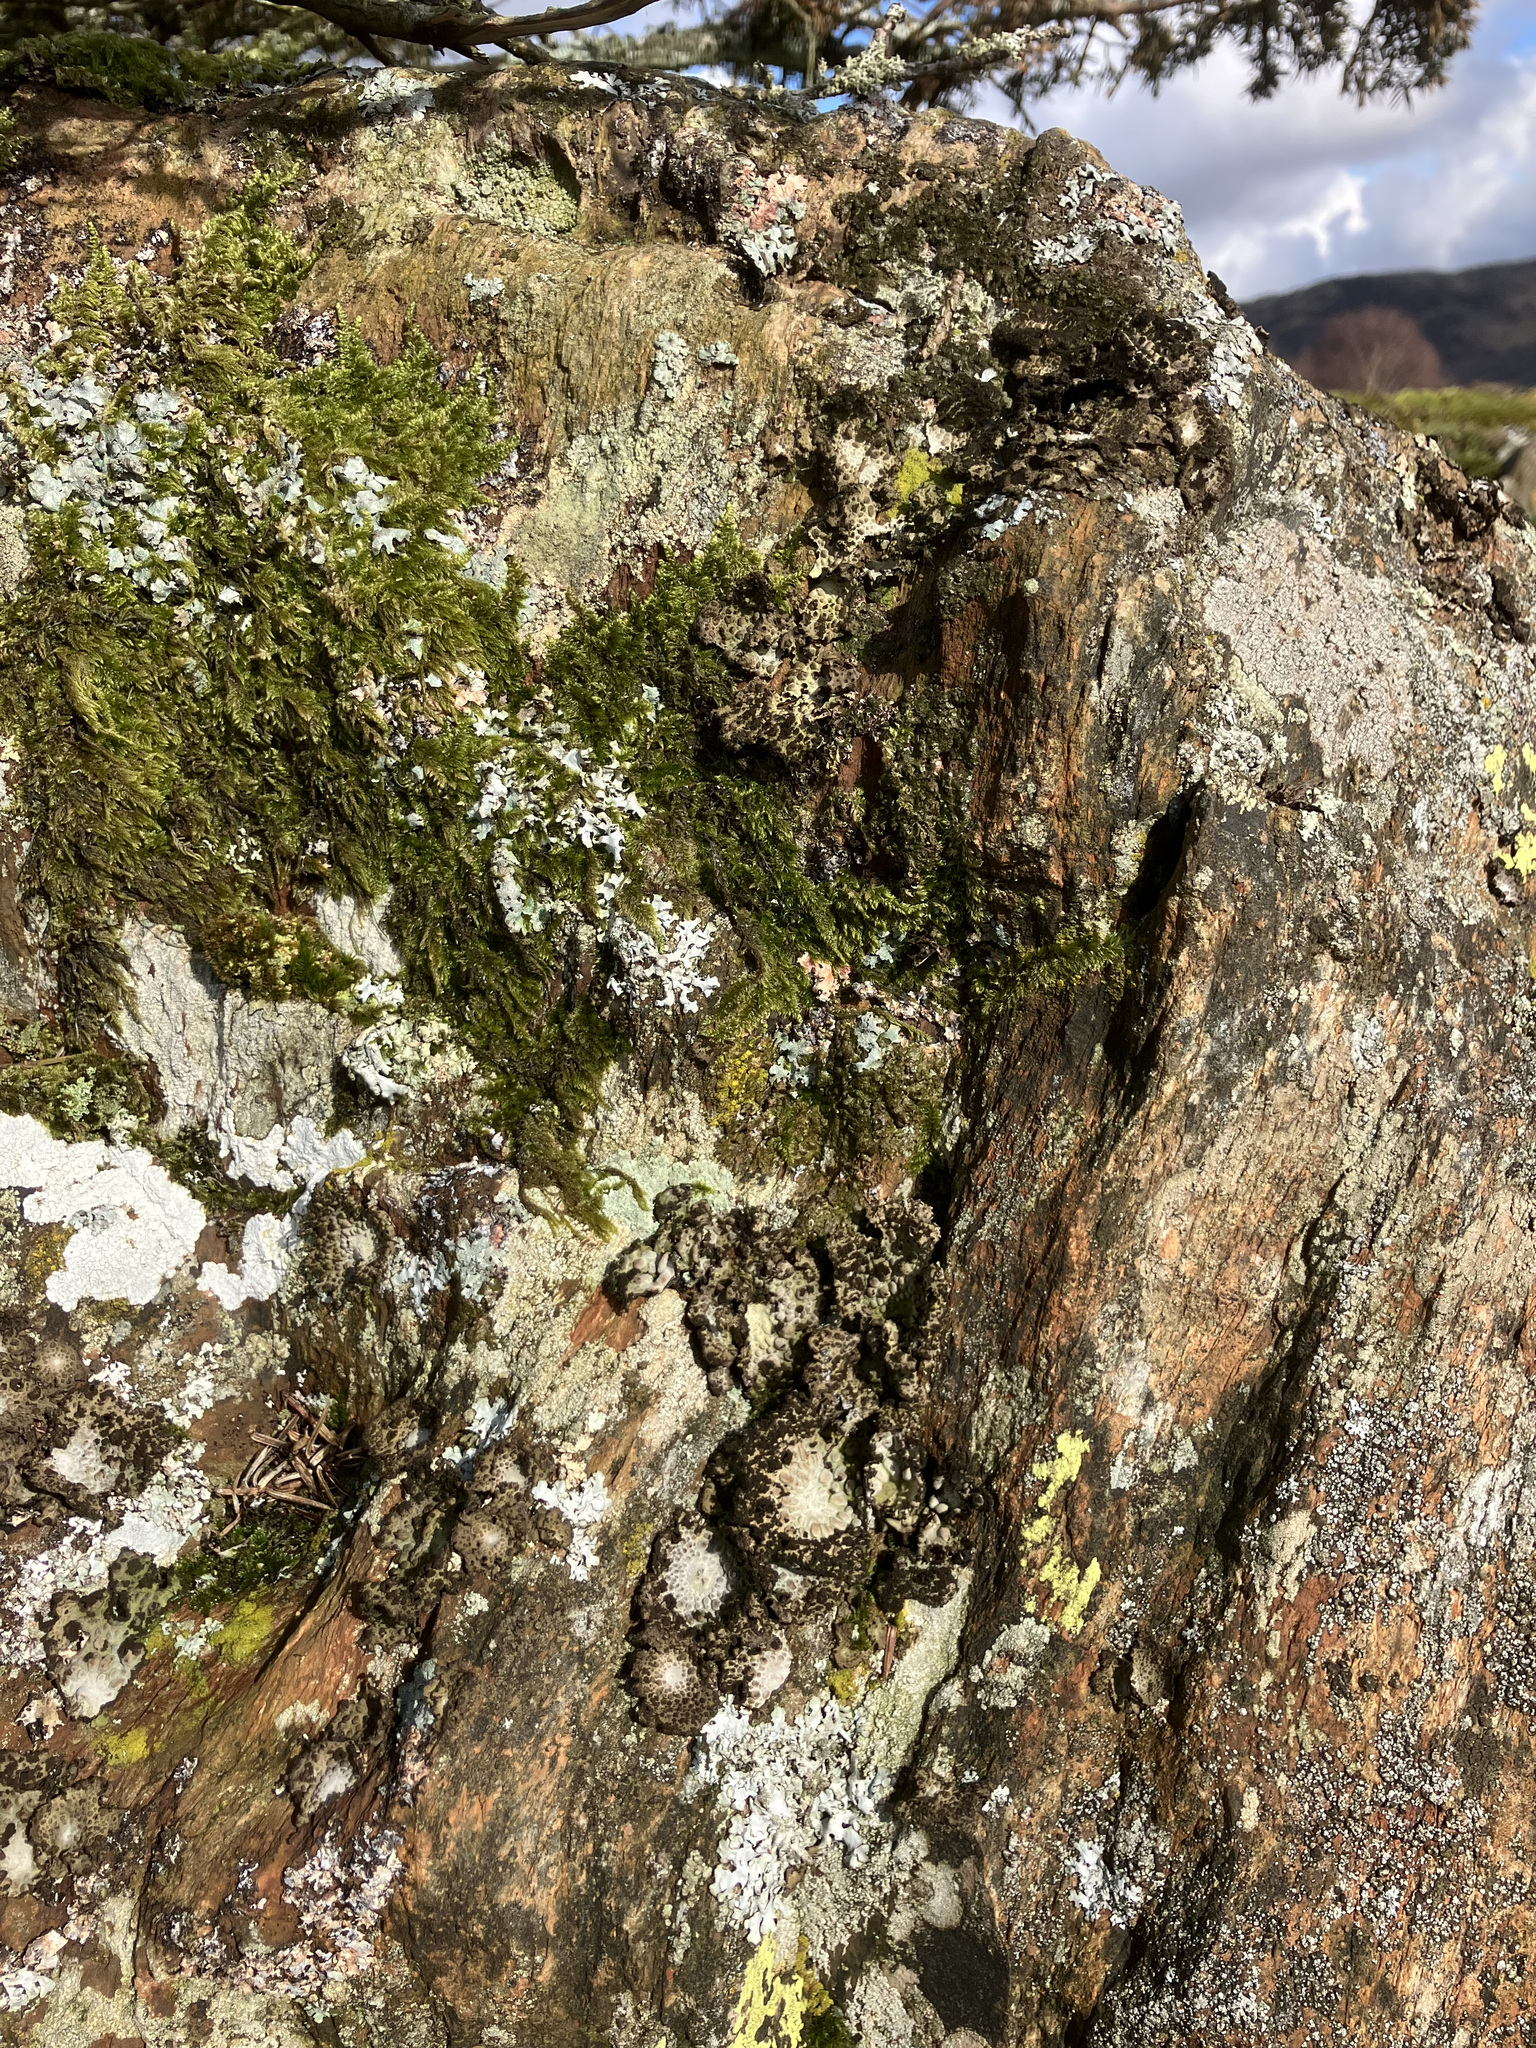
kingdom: Fungi
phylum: Ascomycota
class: Lecanoromycetes
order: Umbilicariales
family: Umbilicariaceae
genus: Lasallia
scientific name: Lasallia pustulata
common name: Blistered toadskin lichen
